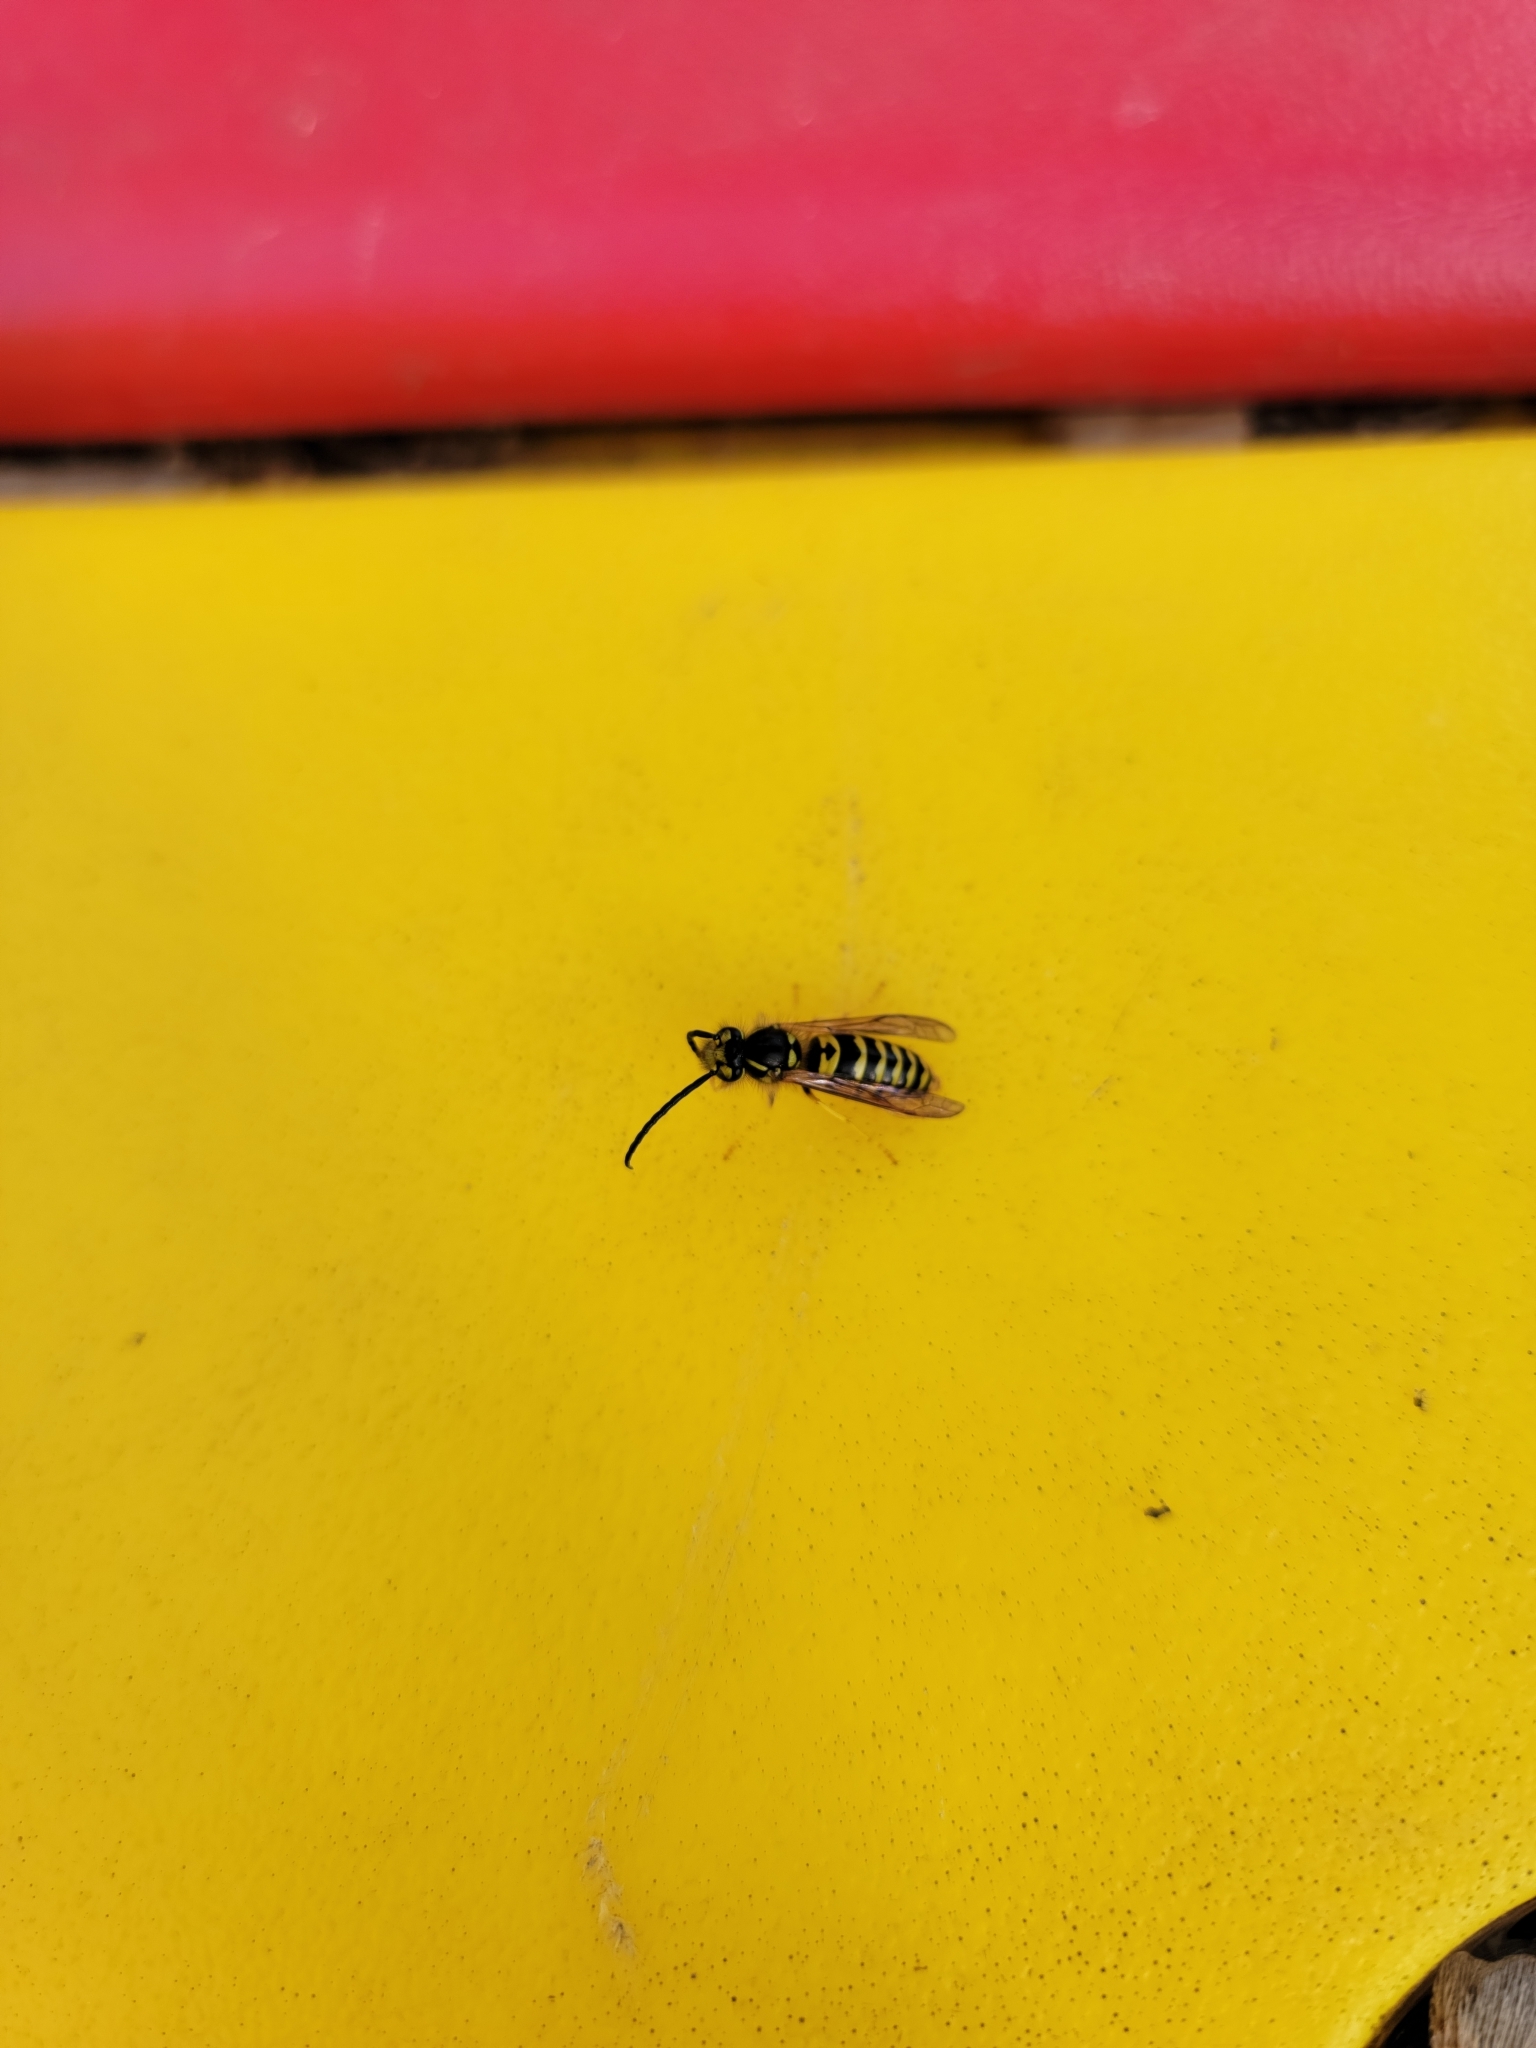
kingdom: Animalia
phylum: Arthropoda
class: Insecta
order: Hymenoptera
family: Vespidae
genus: Vespula
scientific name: Vespula maculifrons
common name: Eastern yellowjacket
